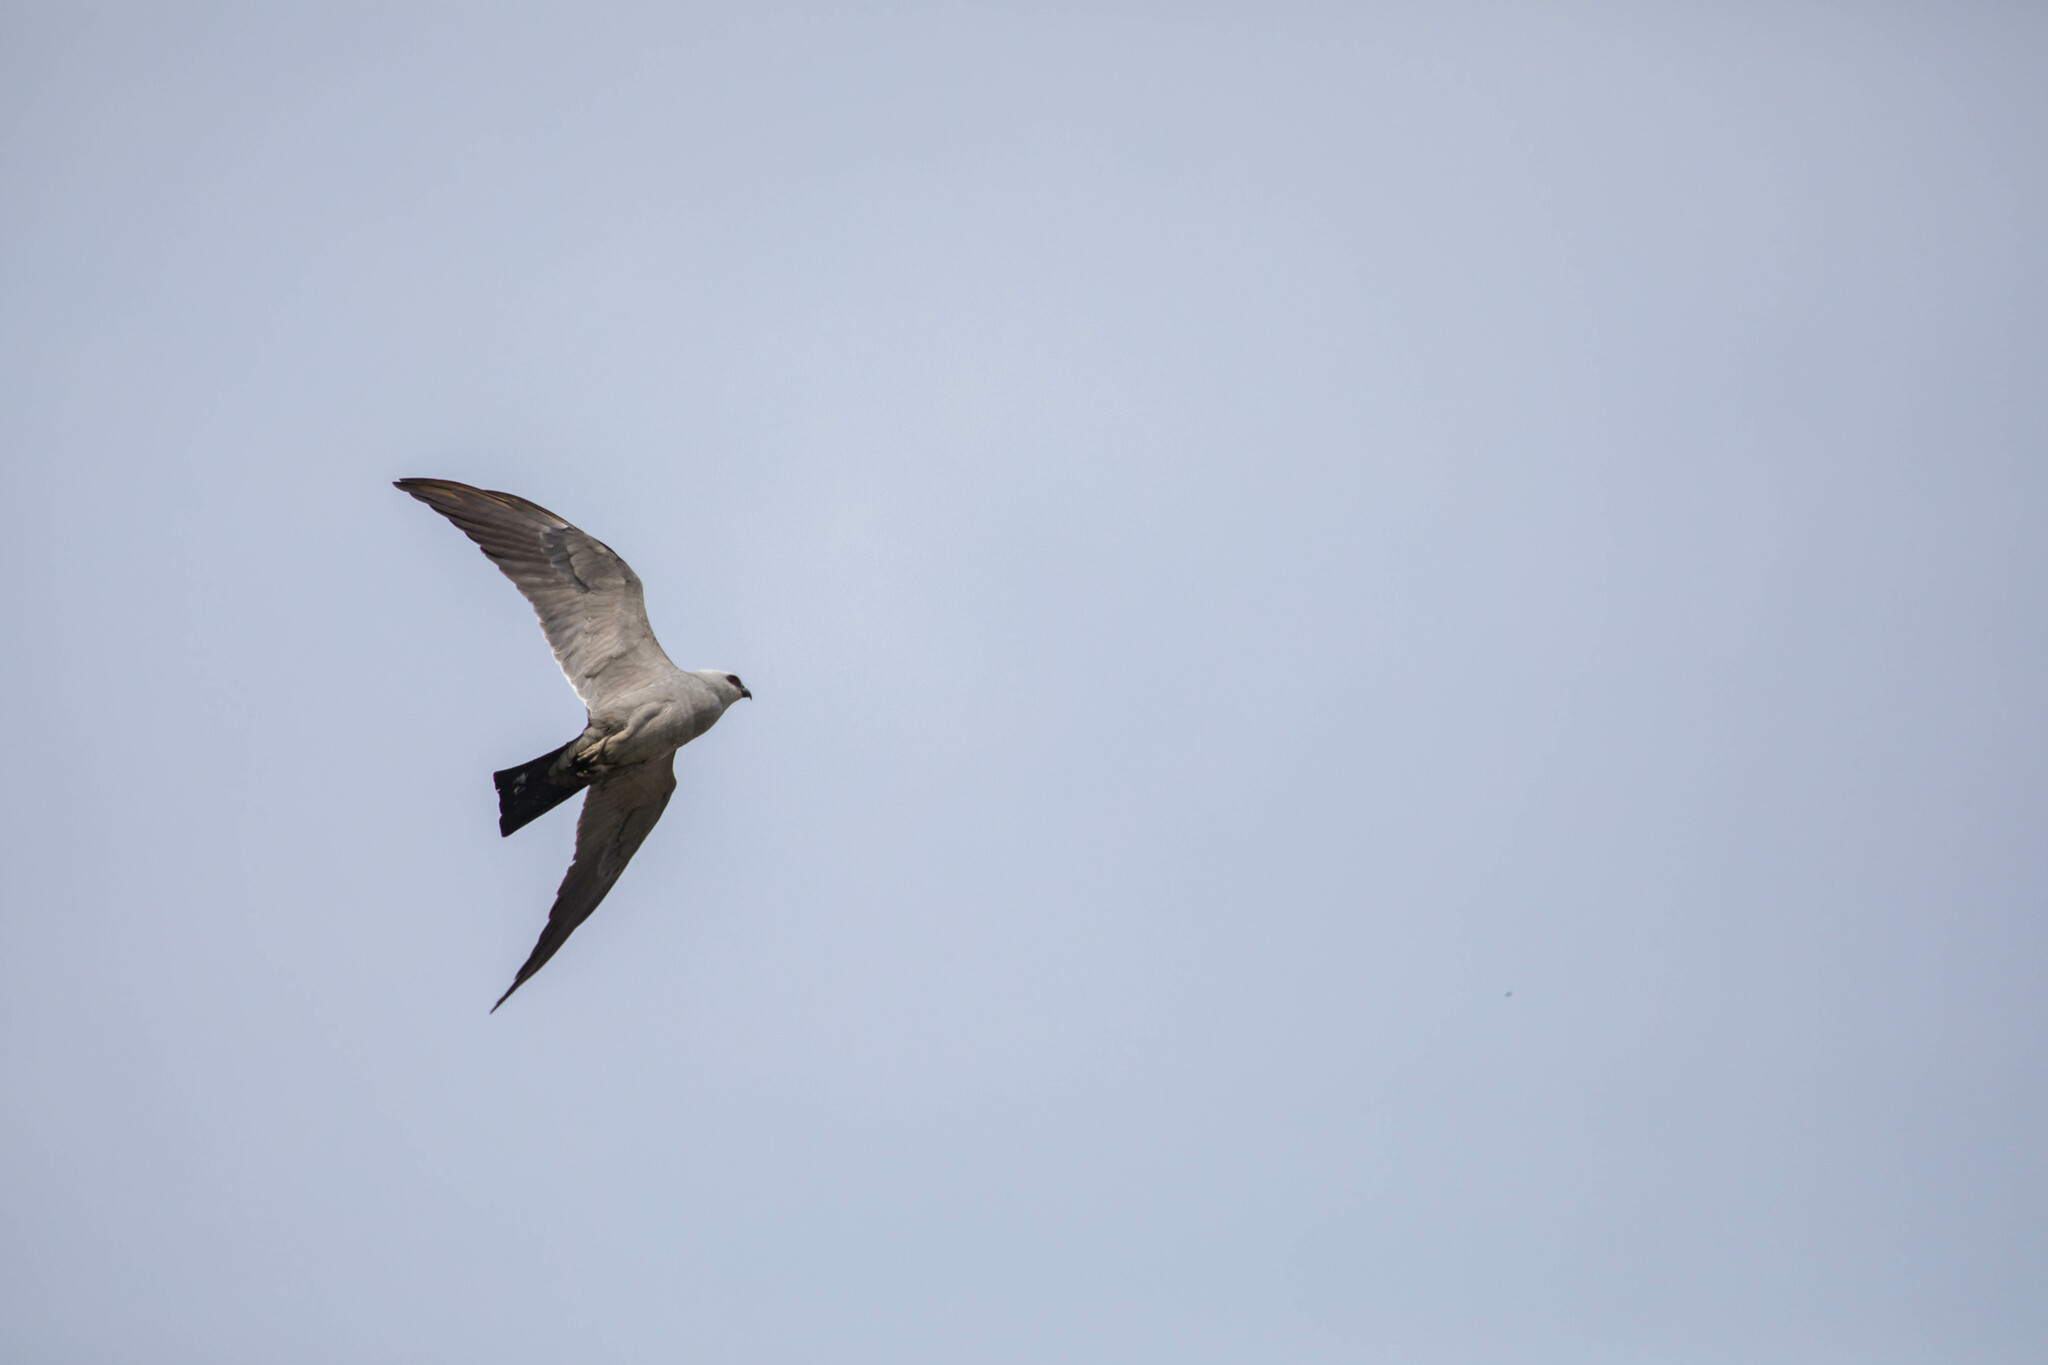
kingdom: Animalia
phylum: Chordata
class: Aves
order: Accipitriformes
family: Accipitridae
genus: Ictinia
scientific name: Ictinia mississippiensis
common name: Mississippi kite
